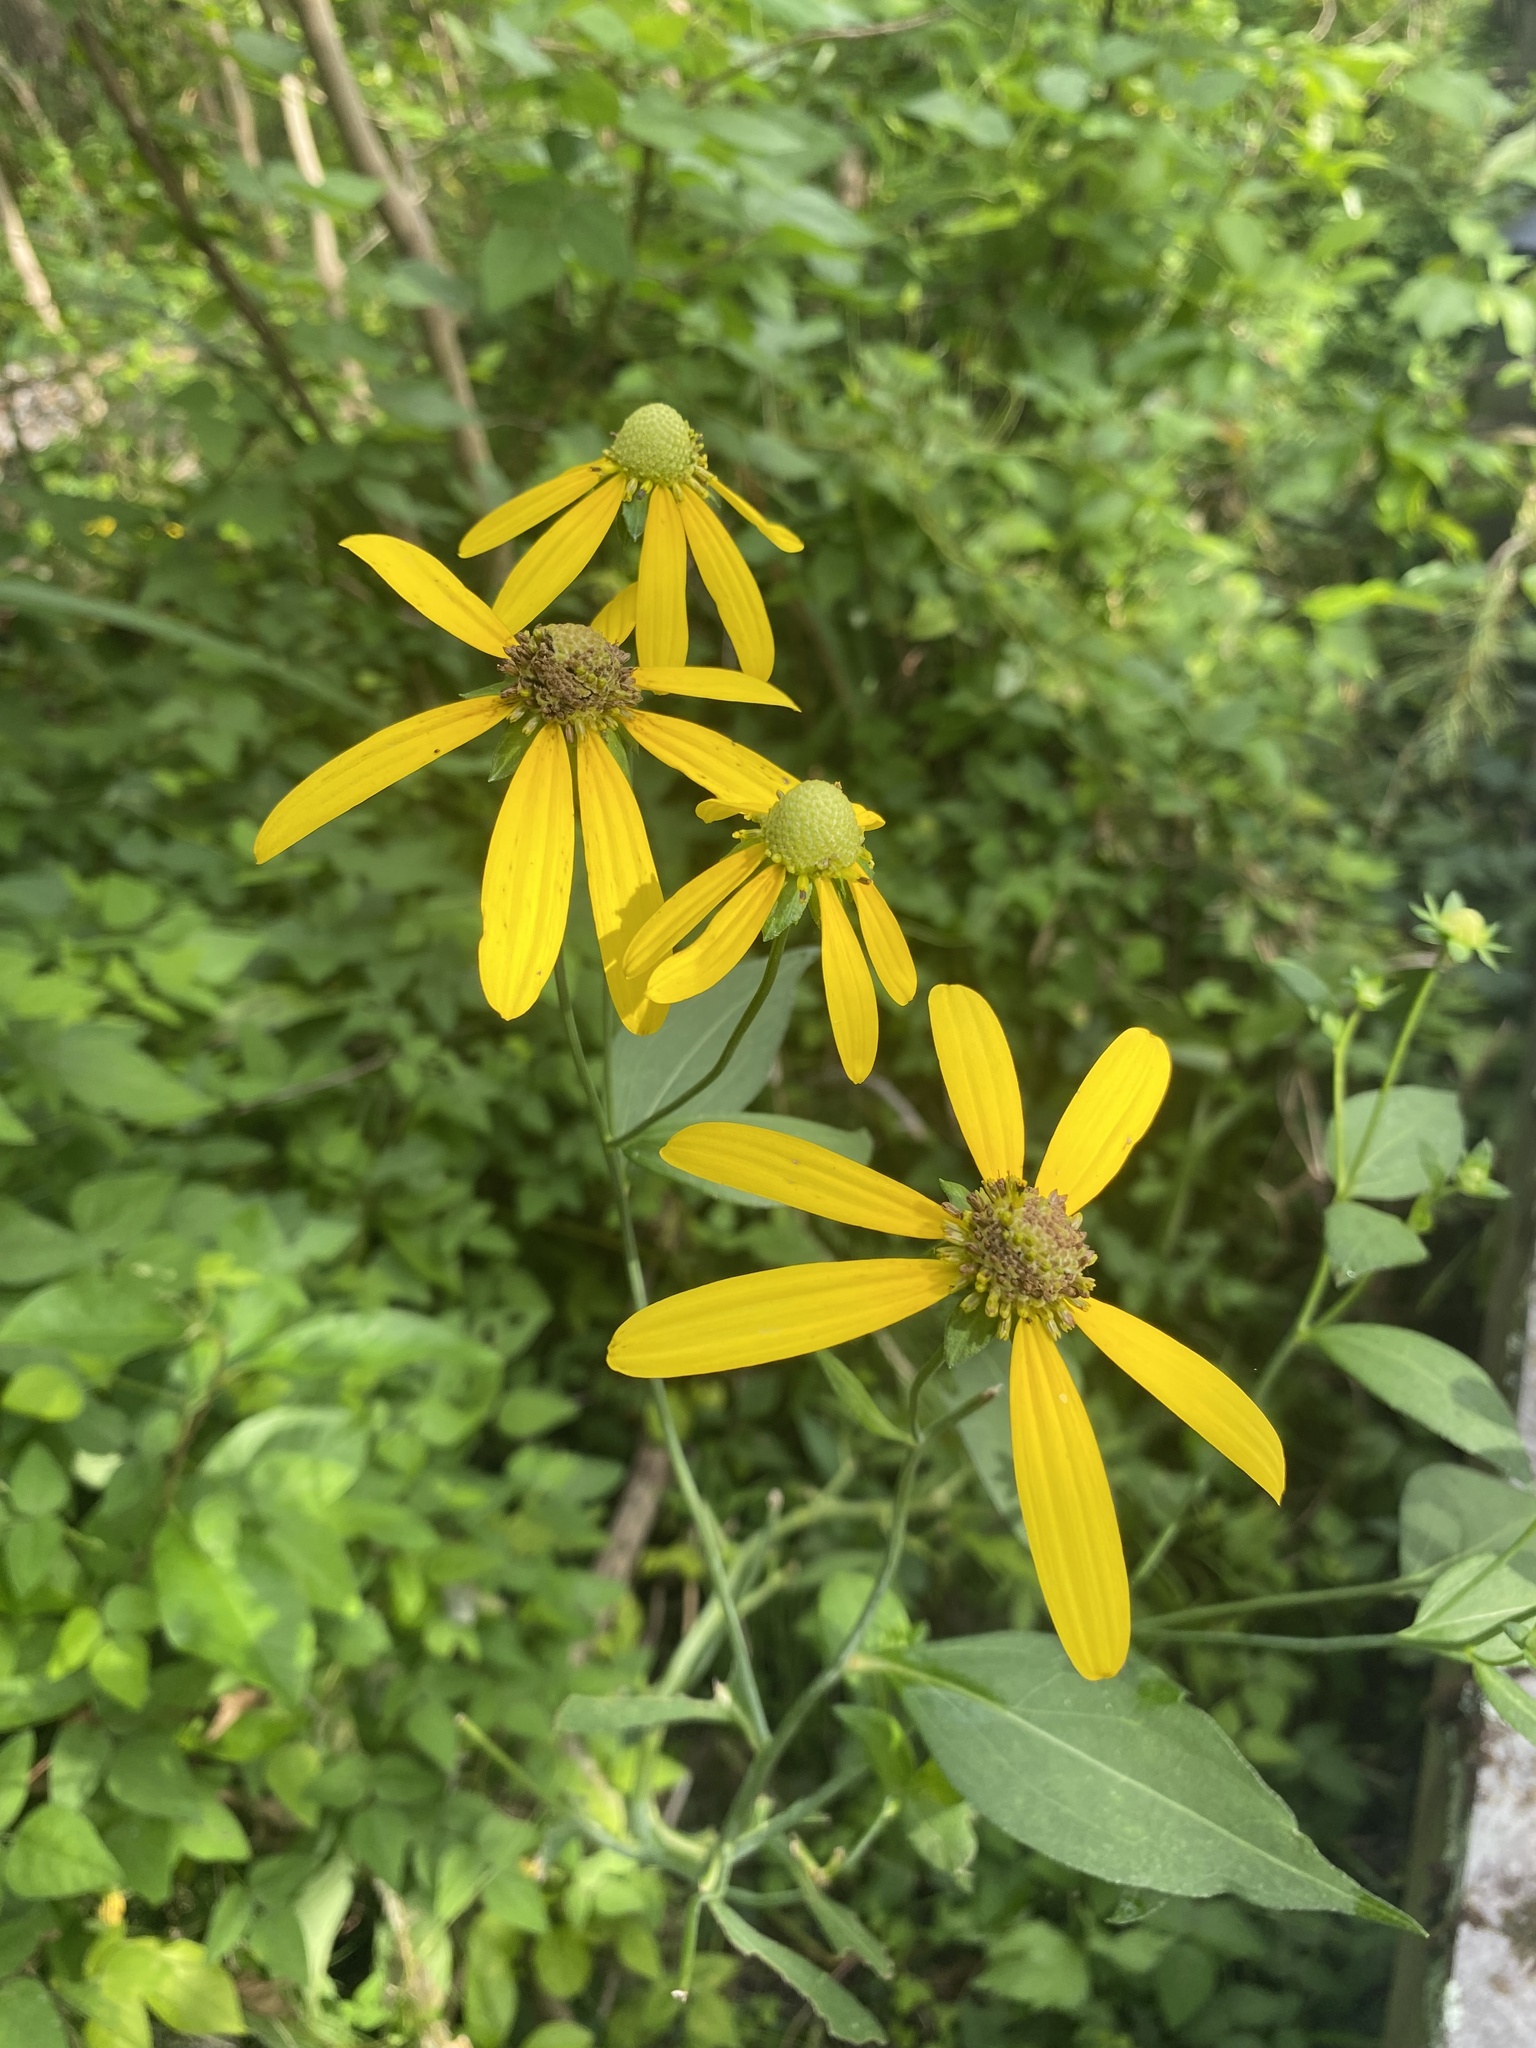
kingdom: Plantae
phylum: Tracheophyta
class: Magnoliopsida
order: Asterales
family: Asteraceae
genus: Rudbeckia
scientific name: Rudbeckia laciniata
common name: Coneflower
